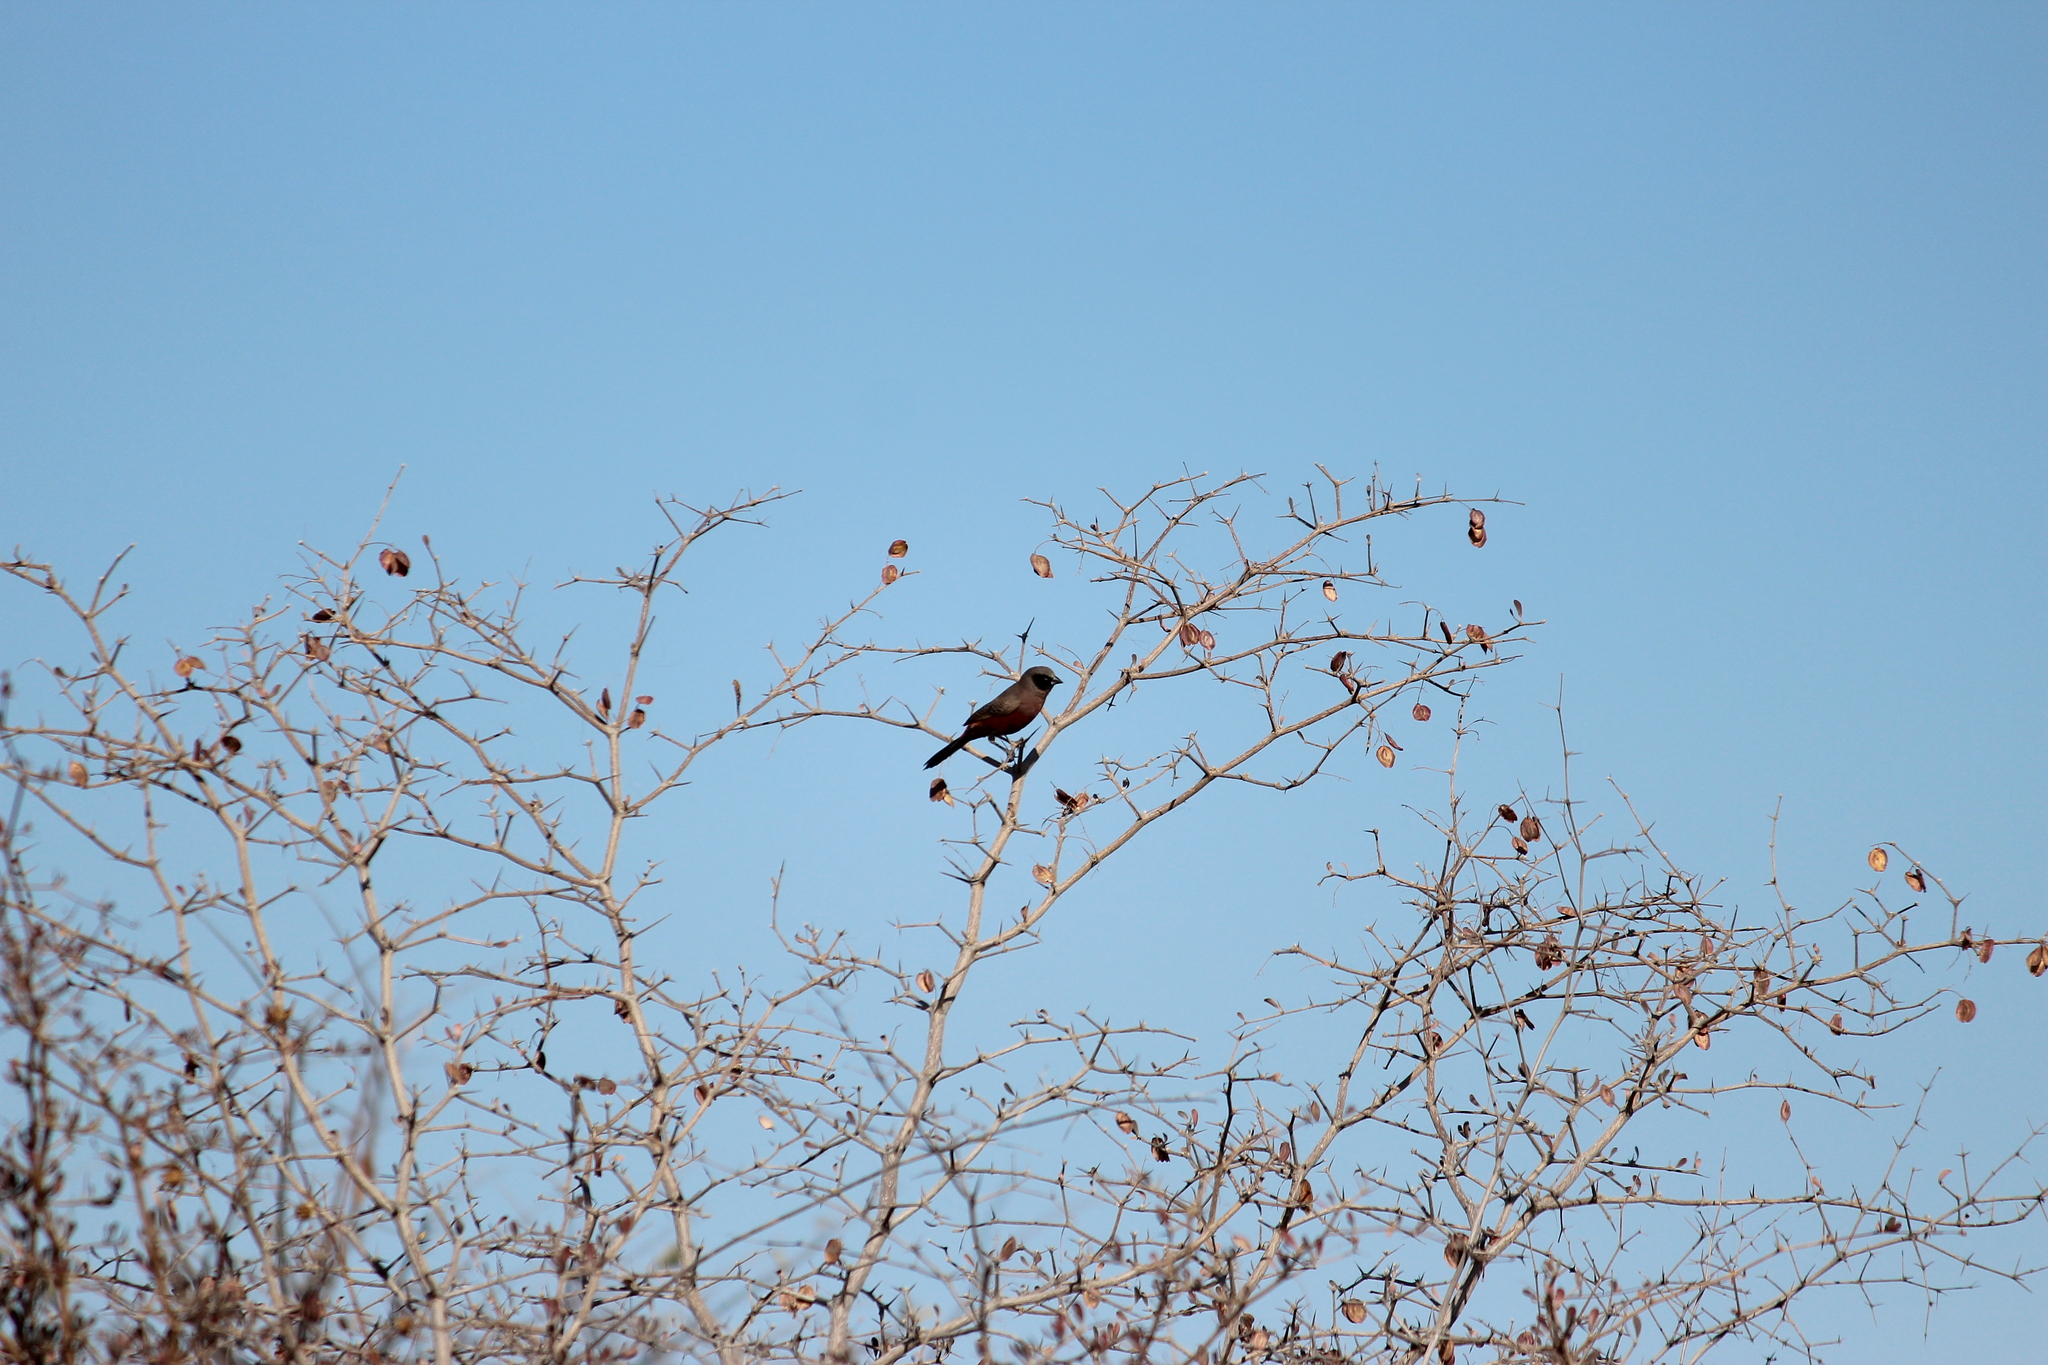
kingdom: Animalia
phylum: Chordata
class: Aves
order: Passeriformes
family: Estrildidae
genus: Estrilda
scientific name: Estrilda erythronotos
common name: Black-faced waxbill
